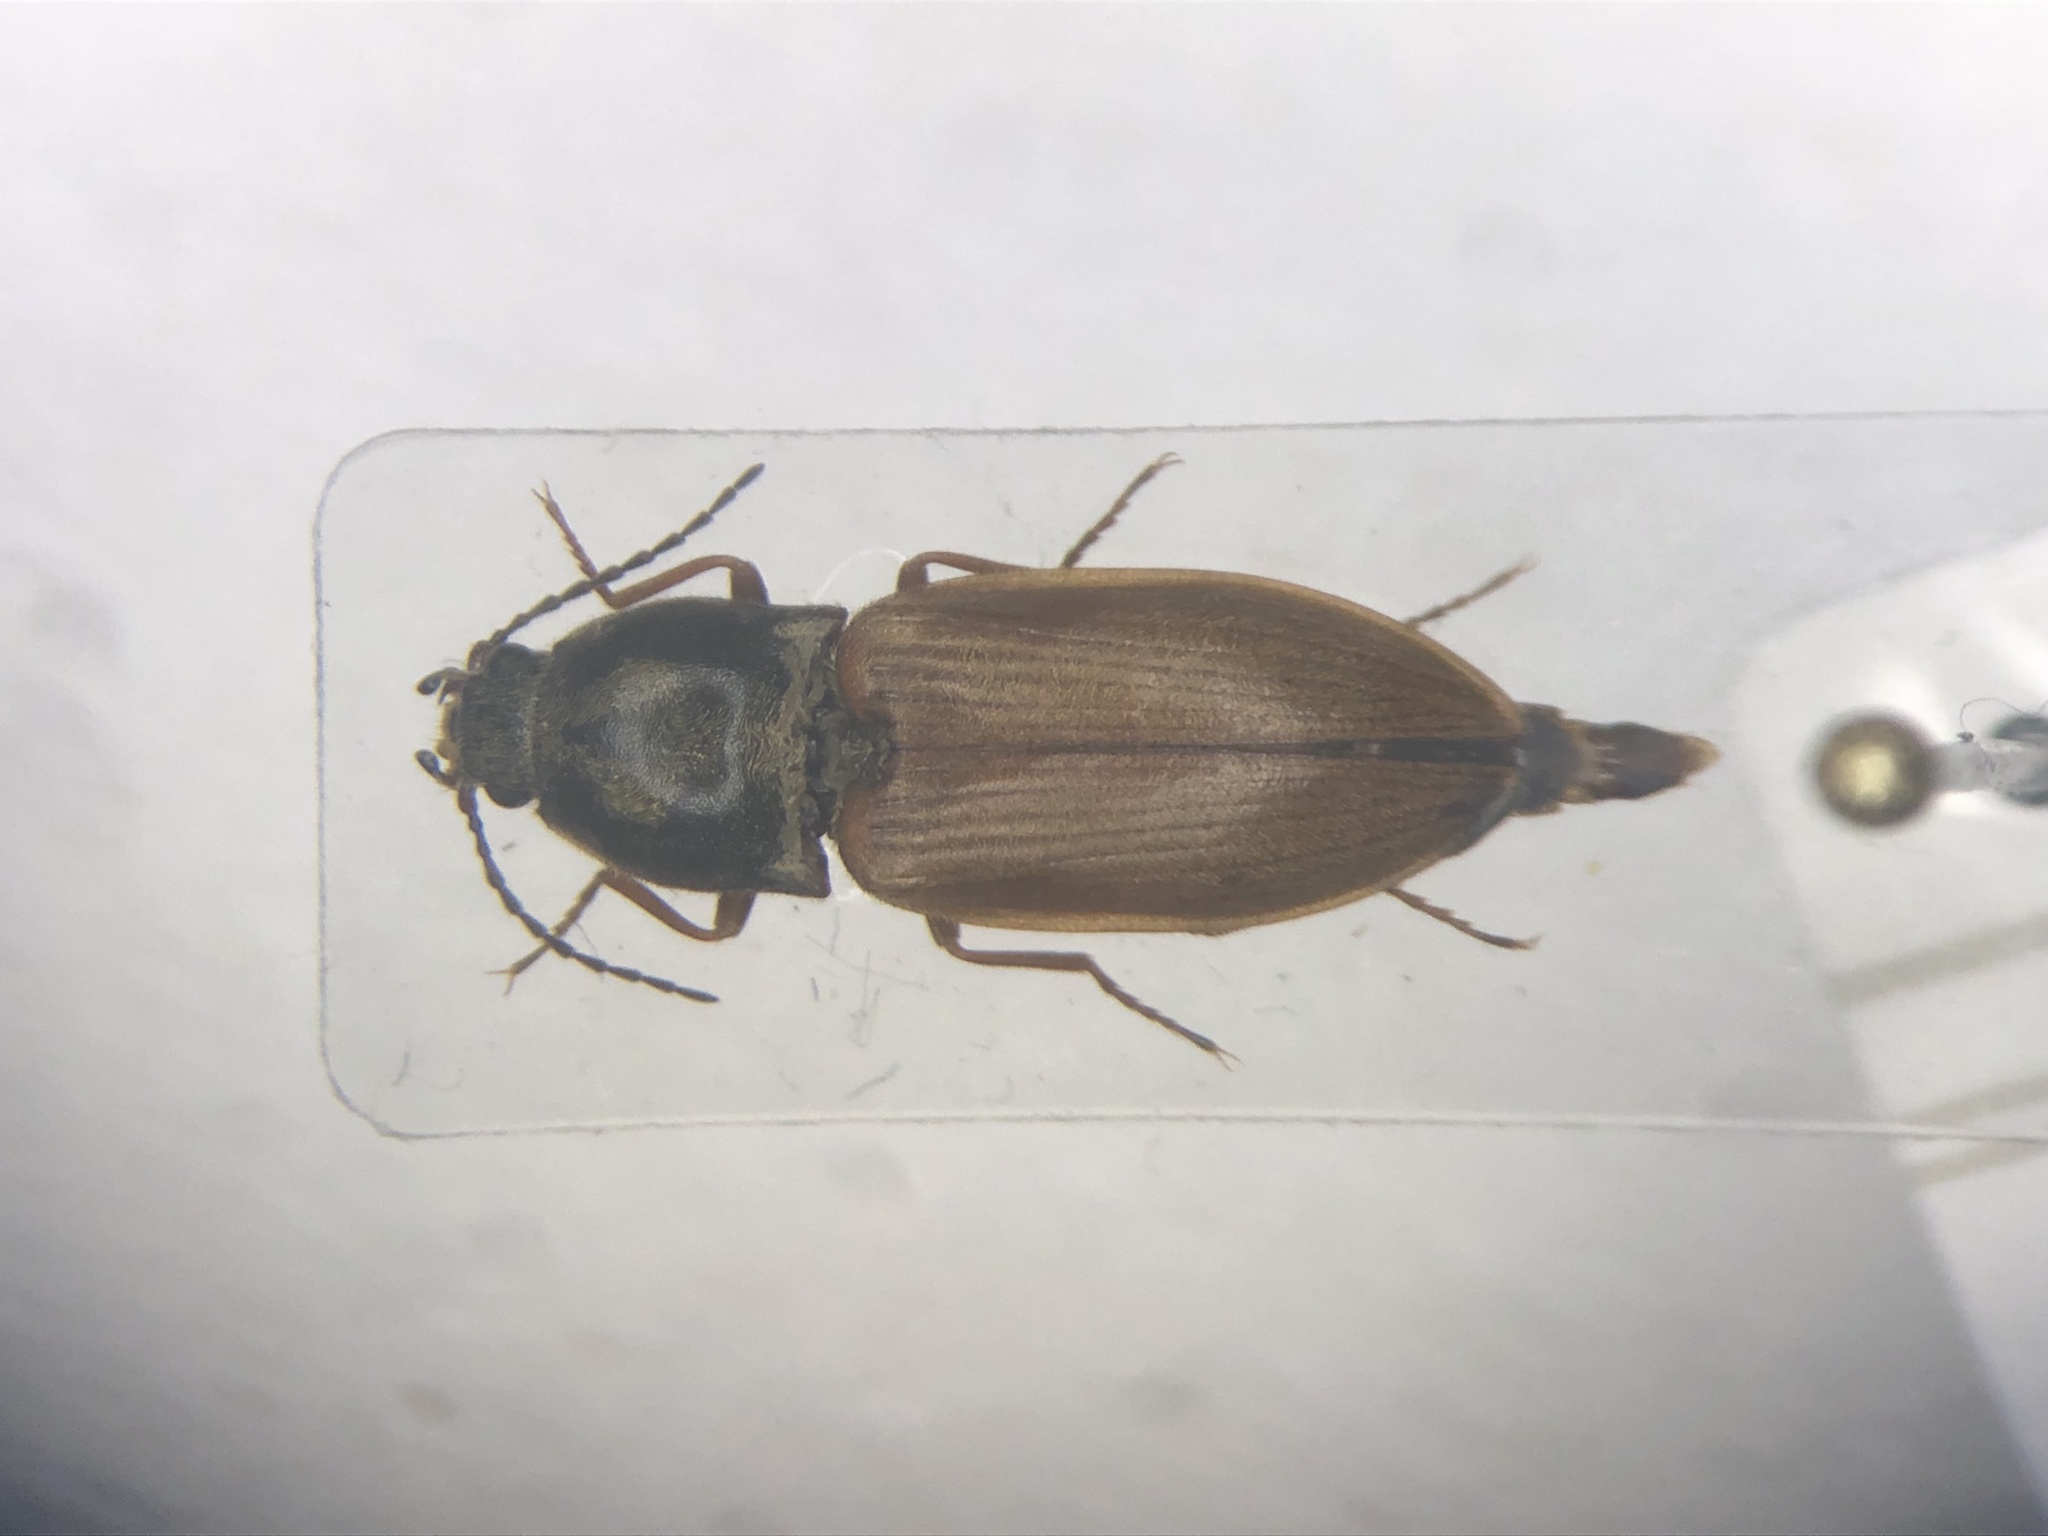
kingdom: Animalia
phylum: Arthropoda
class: Insecta
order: Coleoptera
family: Elateridae
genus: Prosternon
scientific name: Prosternon medianum
